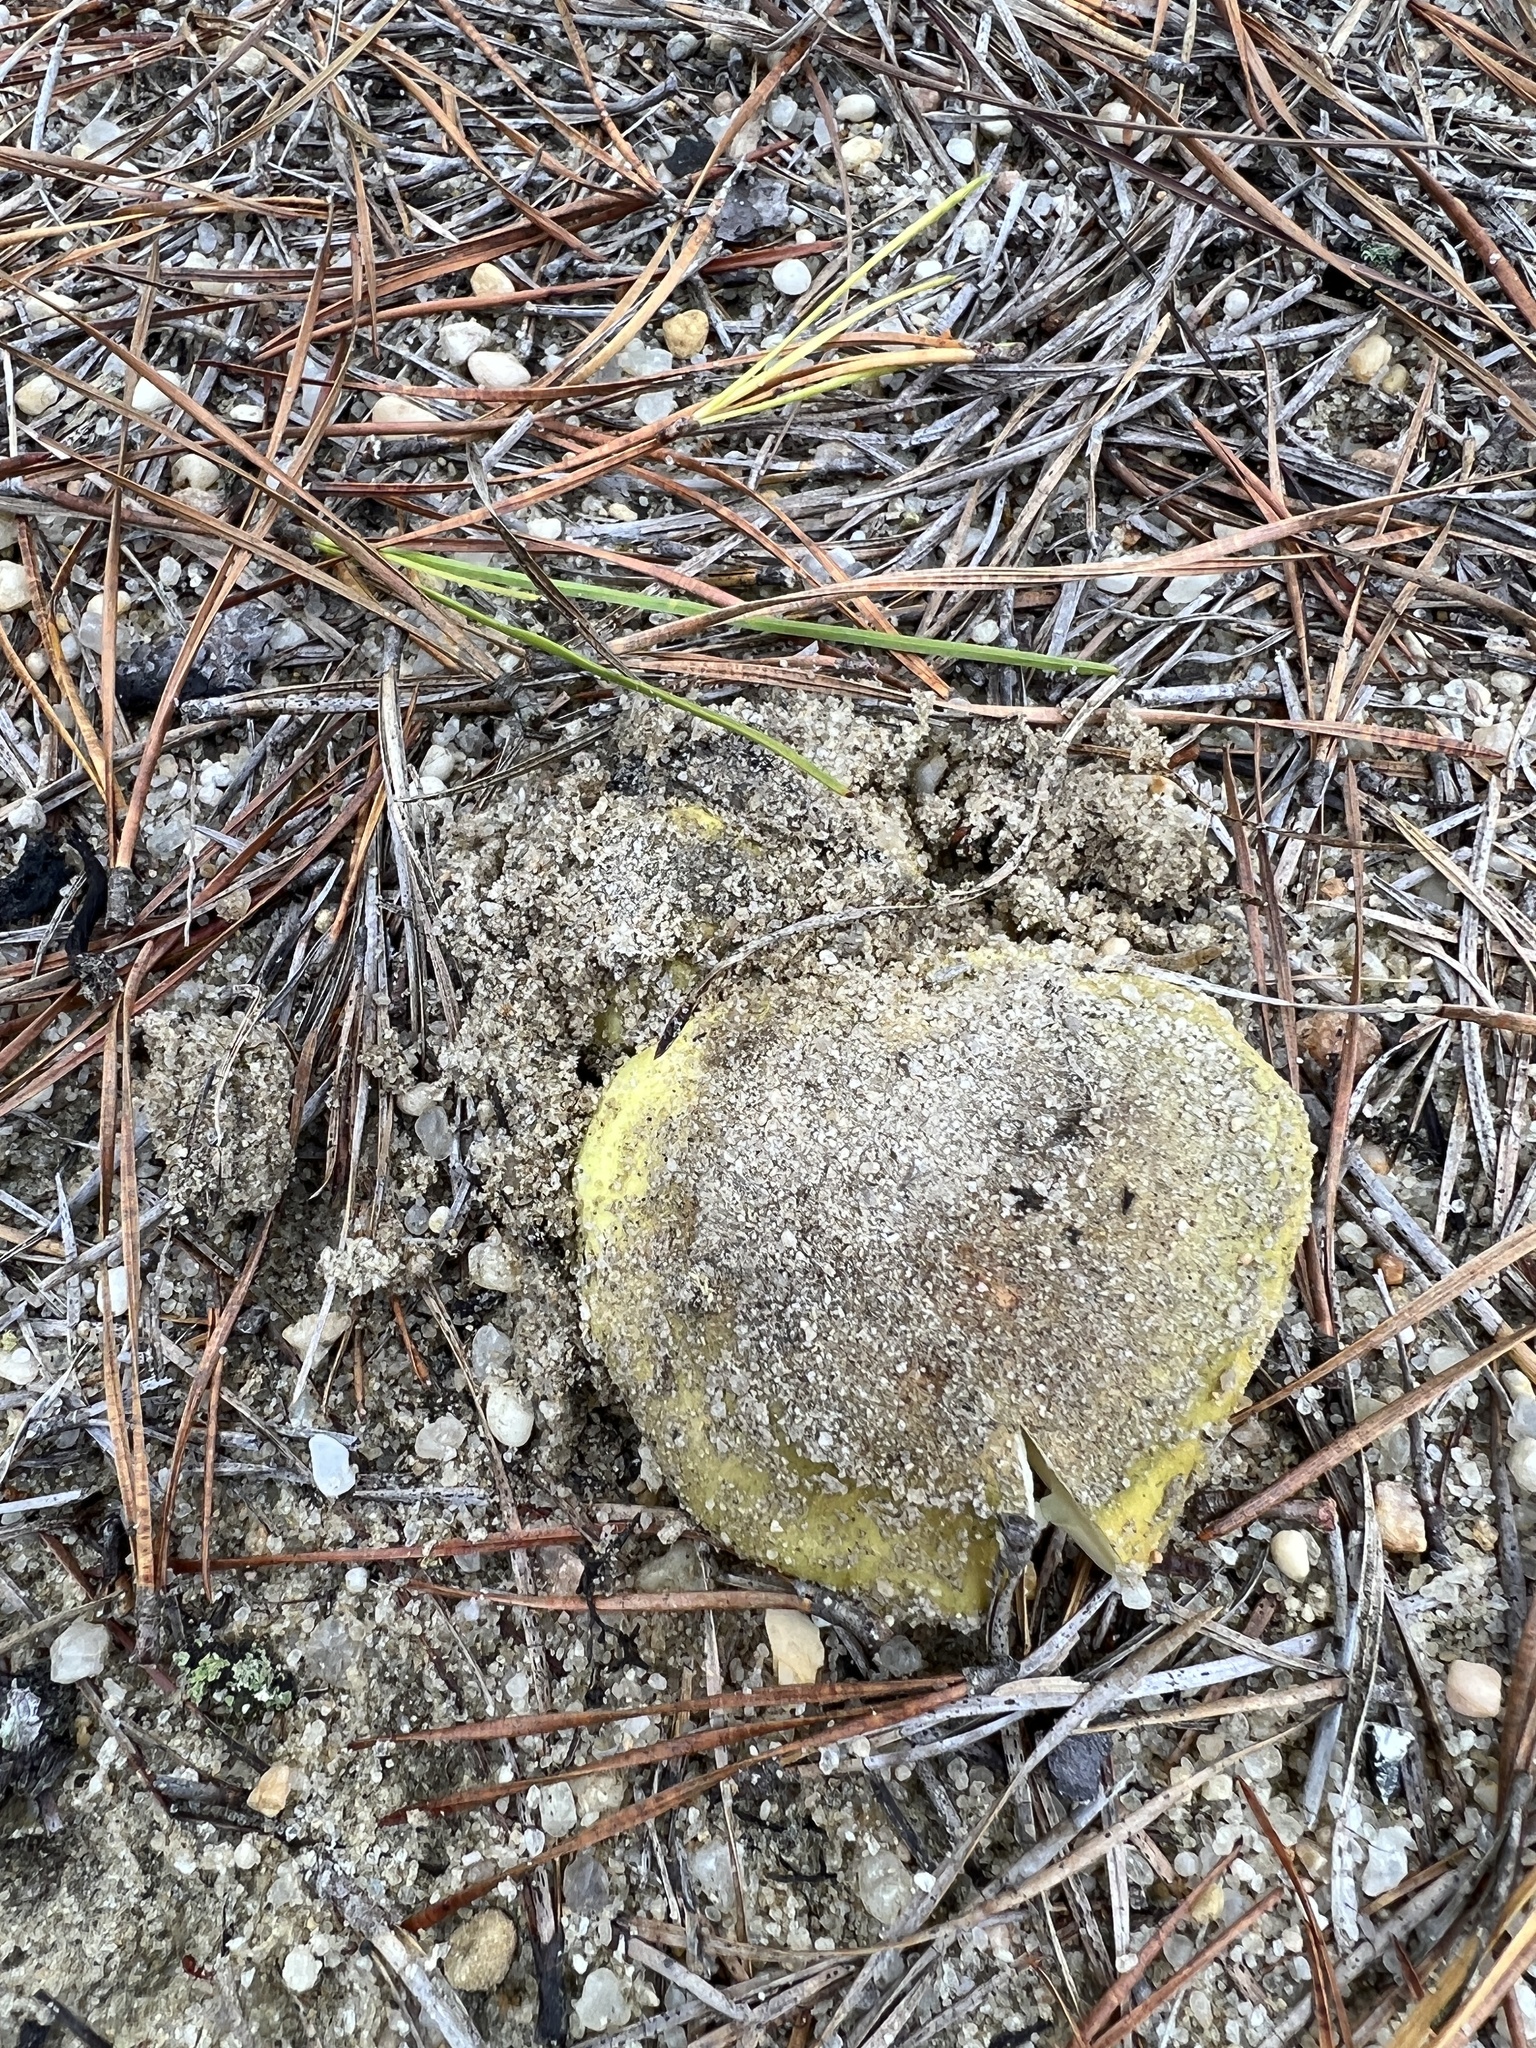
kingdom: Fungi
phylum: Basidiomycota
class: Agaricomycetes
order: Agaricales
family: Tricholomataceae
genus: Tricholoma
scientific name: Tricholoma equestre
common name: Yellow knight
